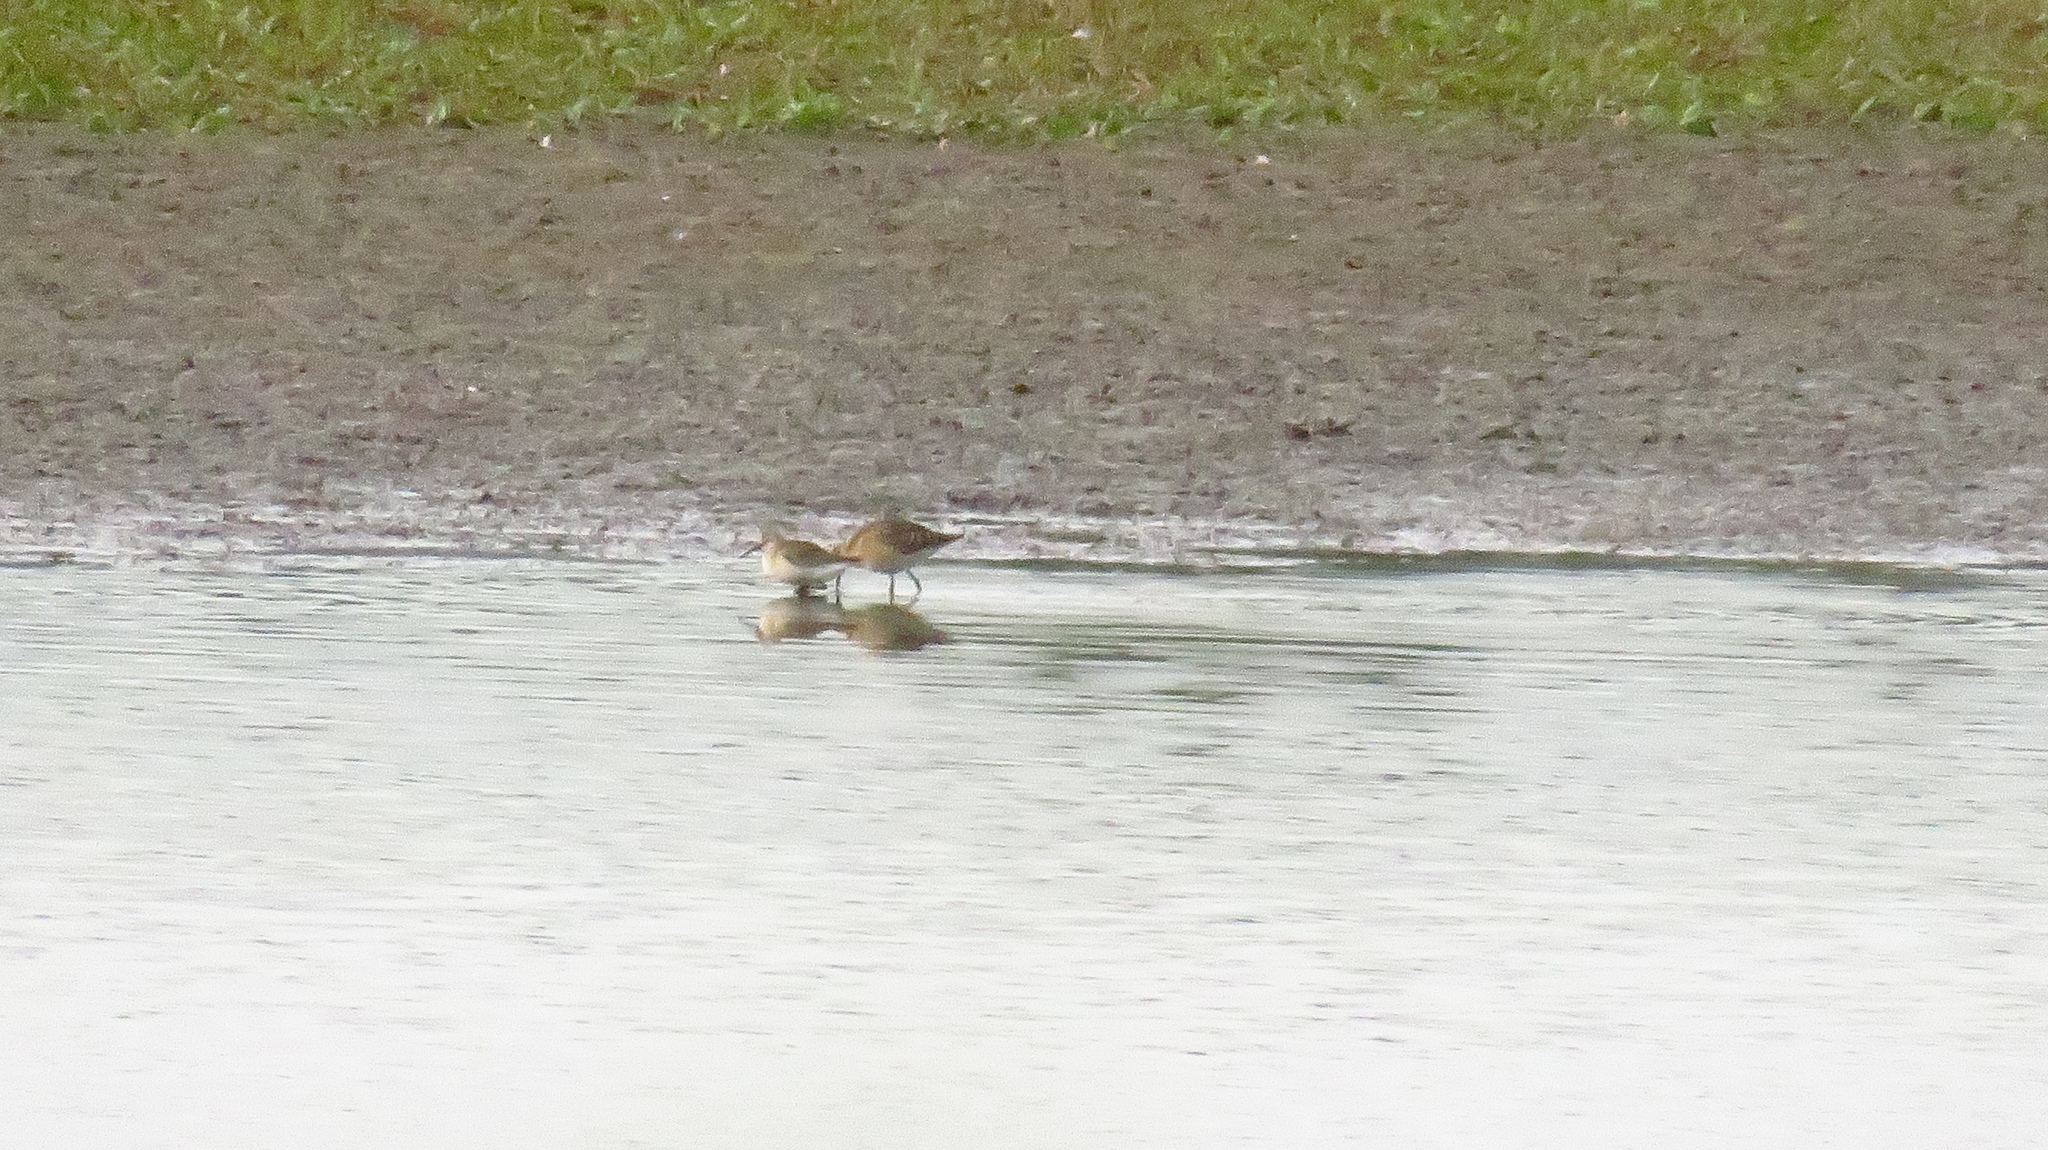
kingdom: Animalia
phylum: Chordata
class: Aves
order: Charadriiformes
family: Scolopacidae
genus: Calidris
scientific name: Calidris ferruginea
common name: Curlew sandpiper
